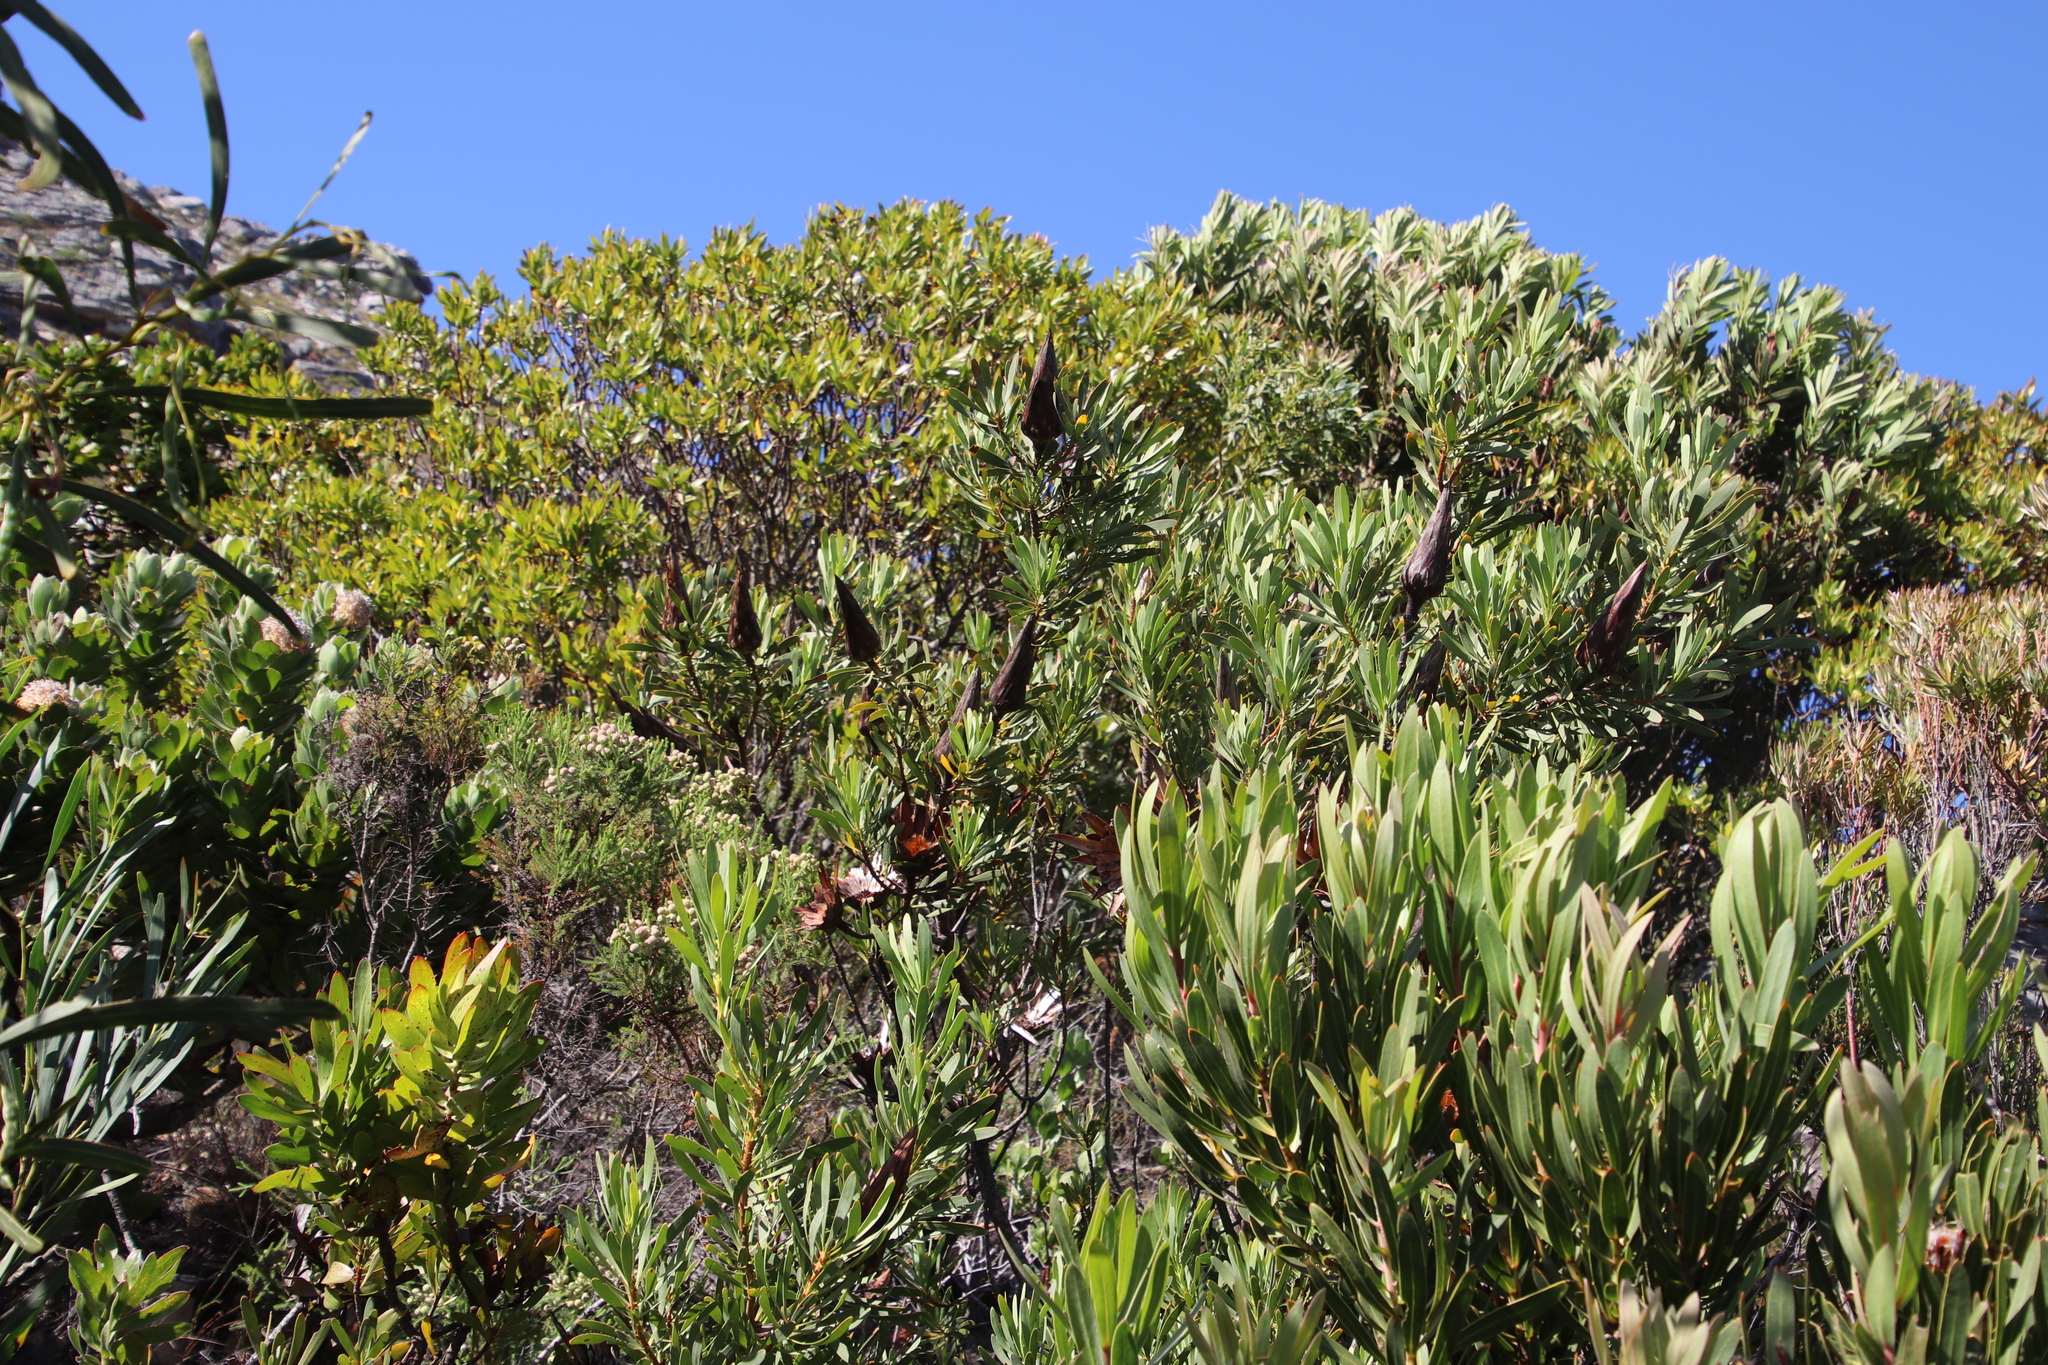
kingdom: Plantae
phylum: Tracheophyta
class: Magnoliopsida
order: Proteales
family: Proteaceae
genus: Protea
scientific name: Protea repens
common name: Sugarbush
